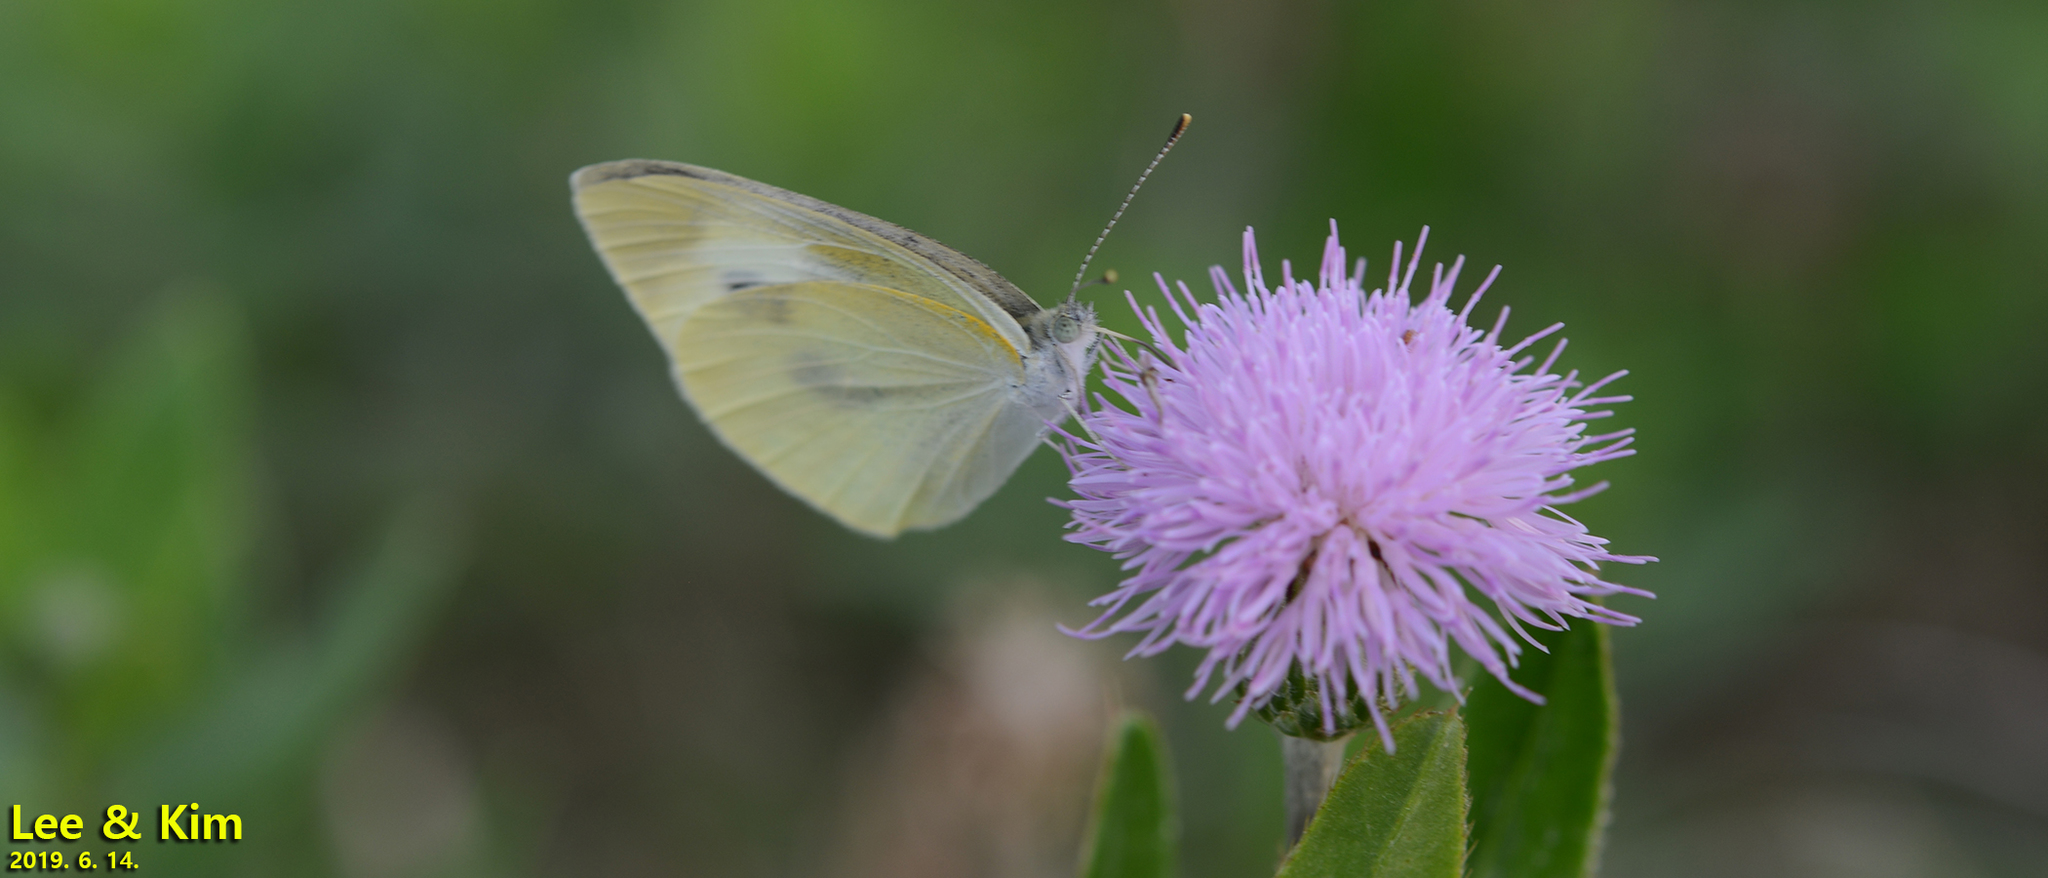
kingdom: Animalia
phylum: Arthropoda
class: Insecta
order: Lepidoptera
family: Pieridae
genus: Pieris
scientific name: Pieris rapae
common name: Small white
